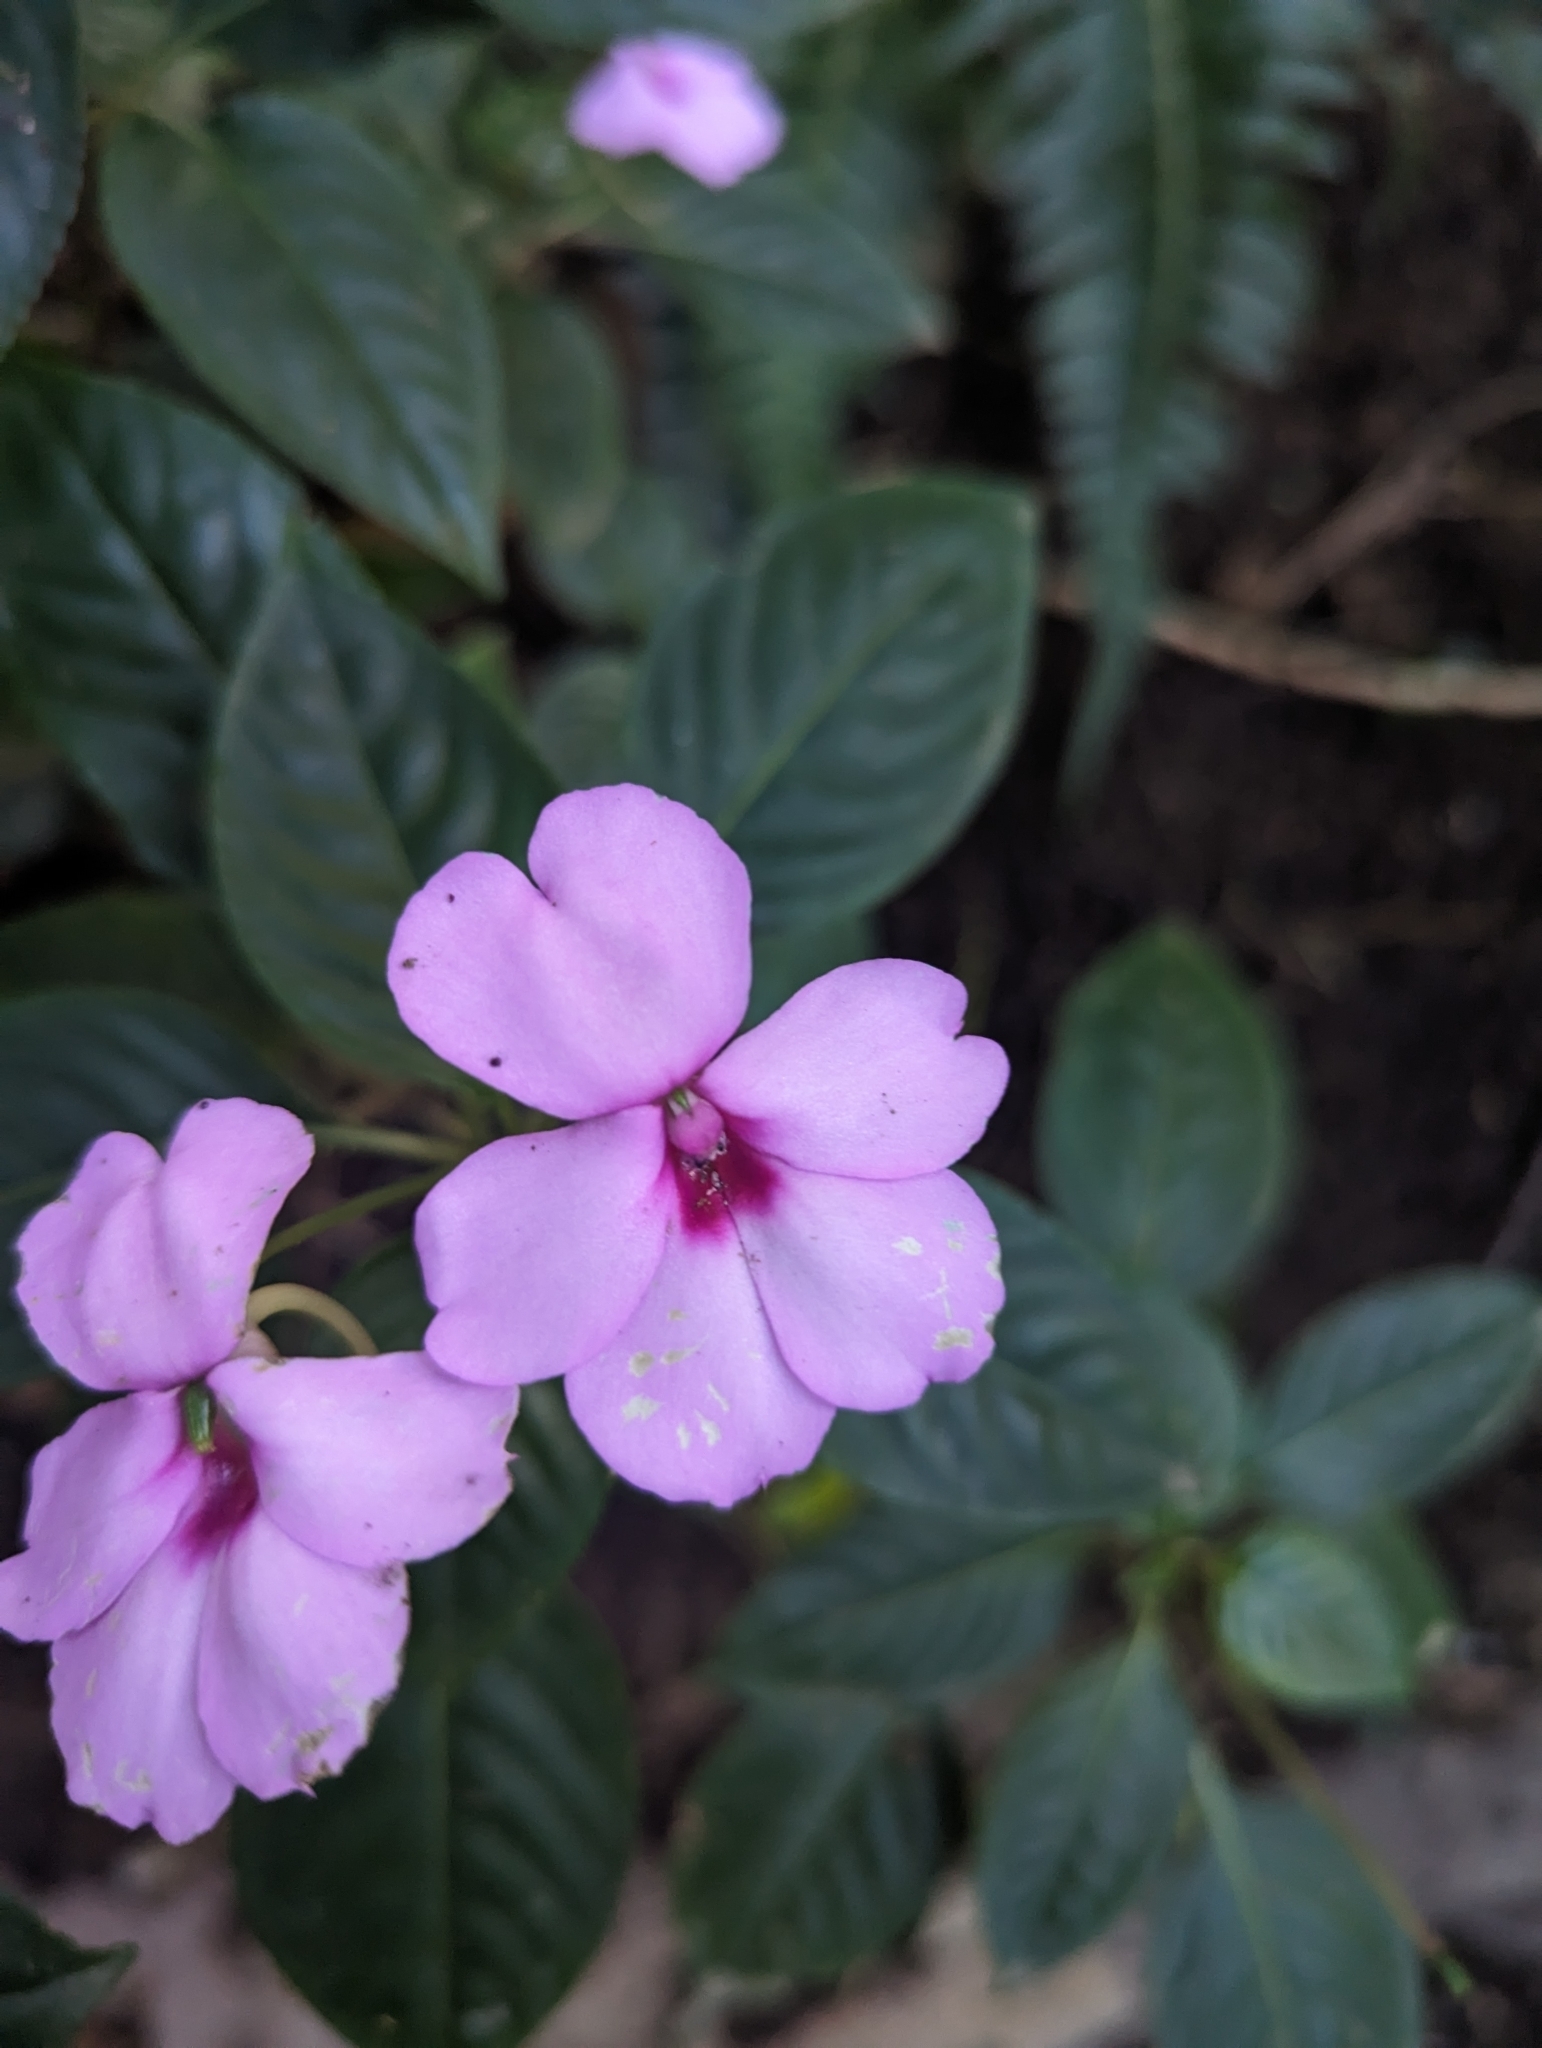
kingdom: Plantae
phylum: Tracheophyta
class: Magnoliopsida
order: Ericales
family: Balsaminaceae
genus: Impatiens
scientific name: Impatiens flaccida
